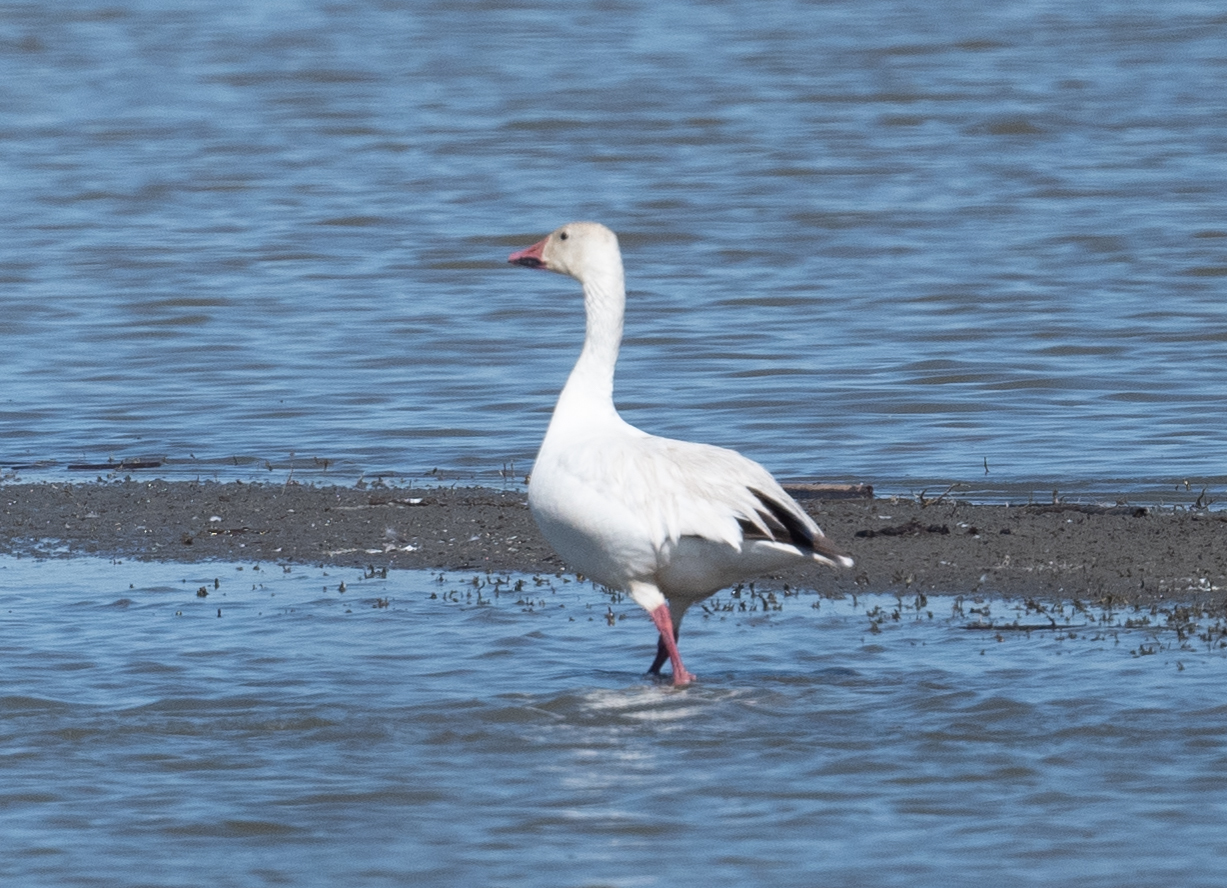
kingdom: Animalia
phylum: Chordata
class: Aves
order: Anseriformes
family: Anatidae
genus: Anser
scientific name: Anser caerulescens
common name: Snow goose
